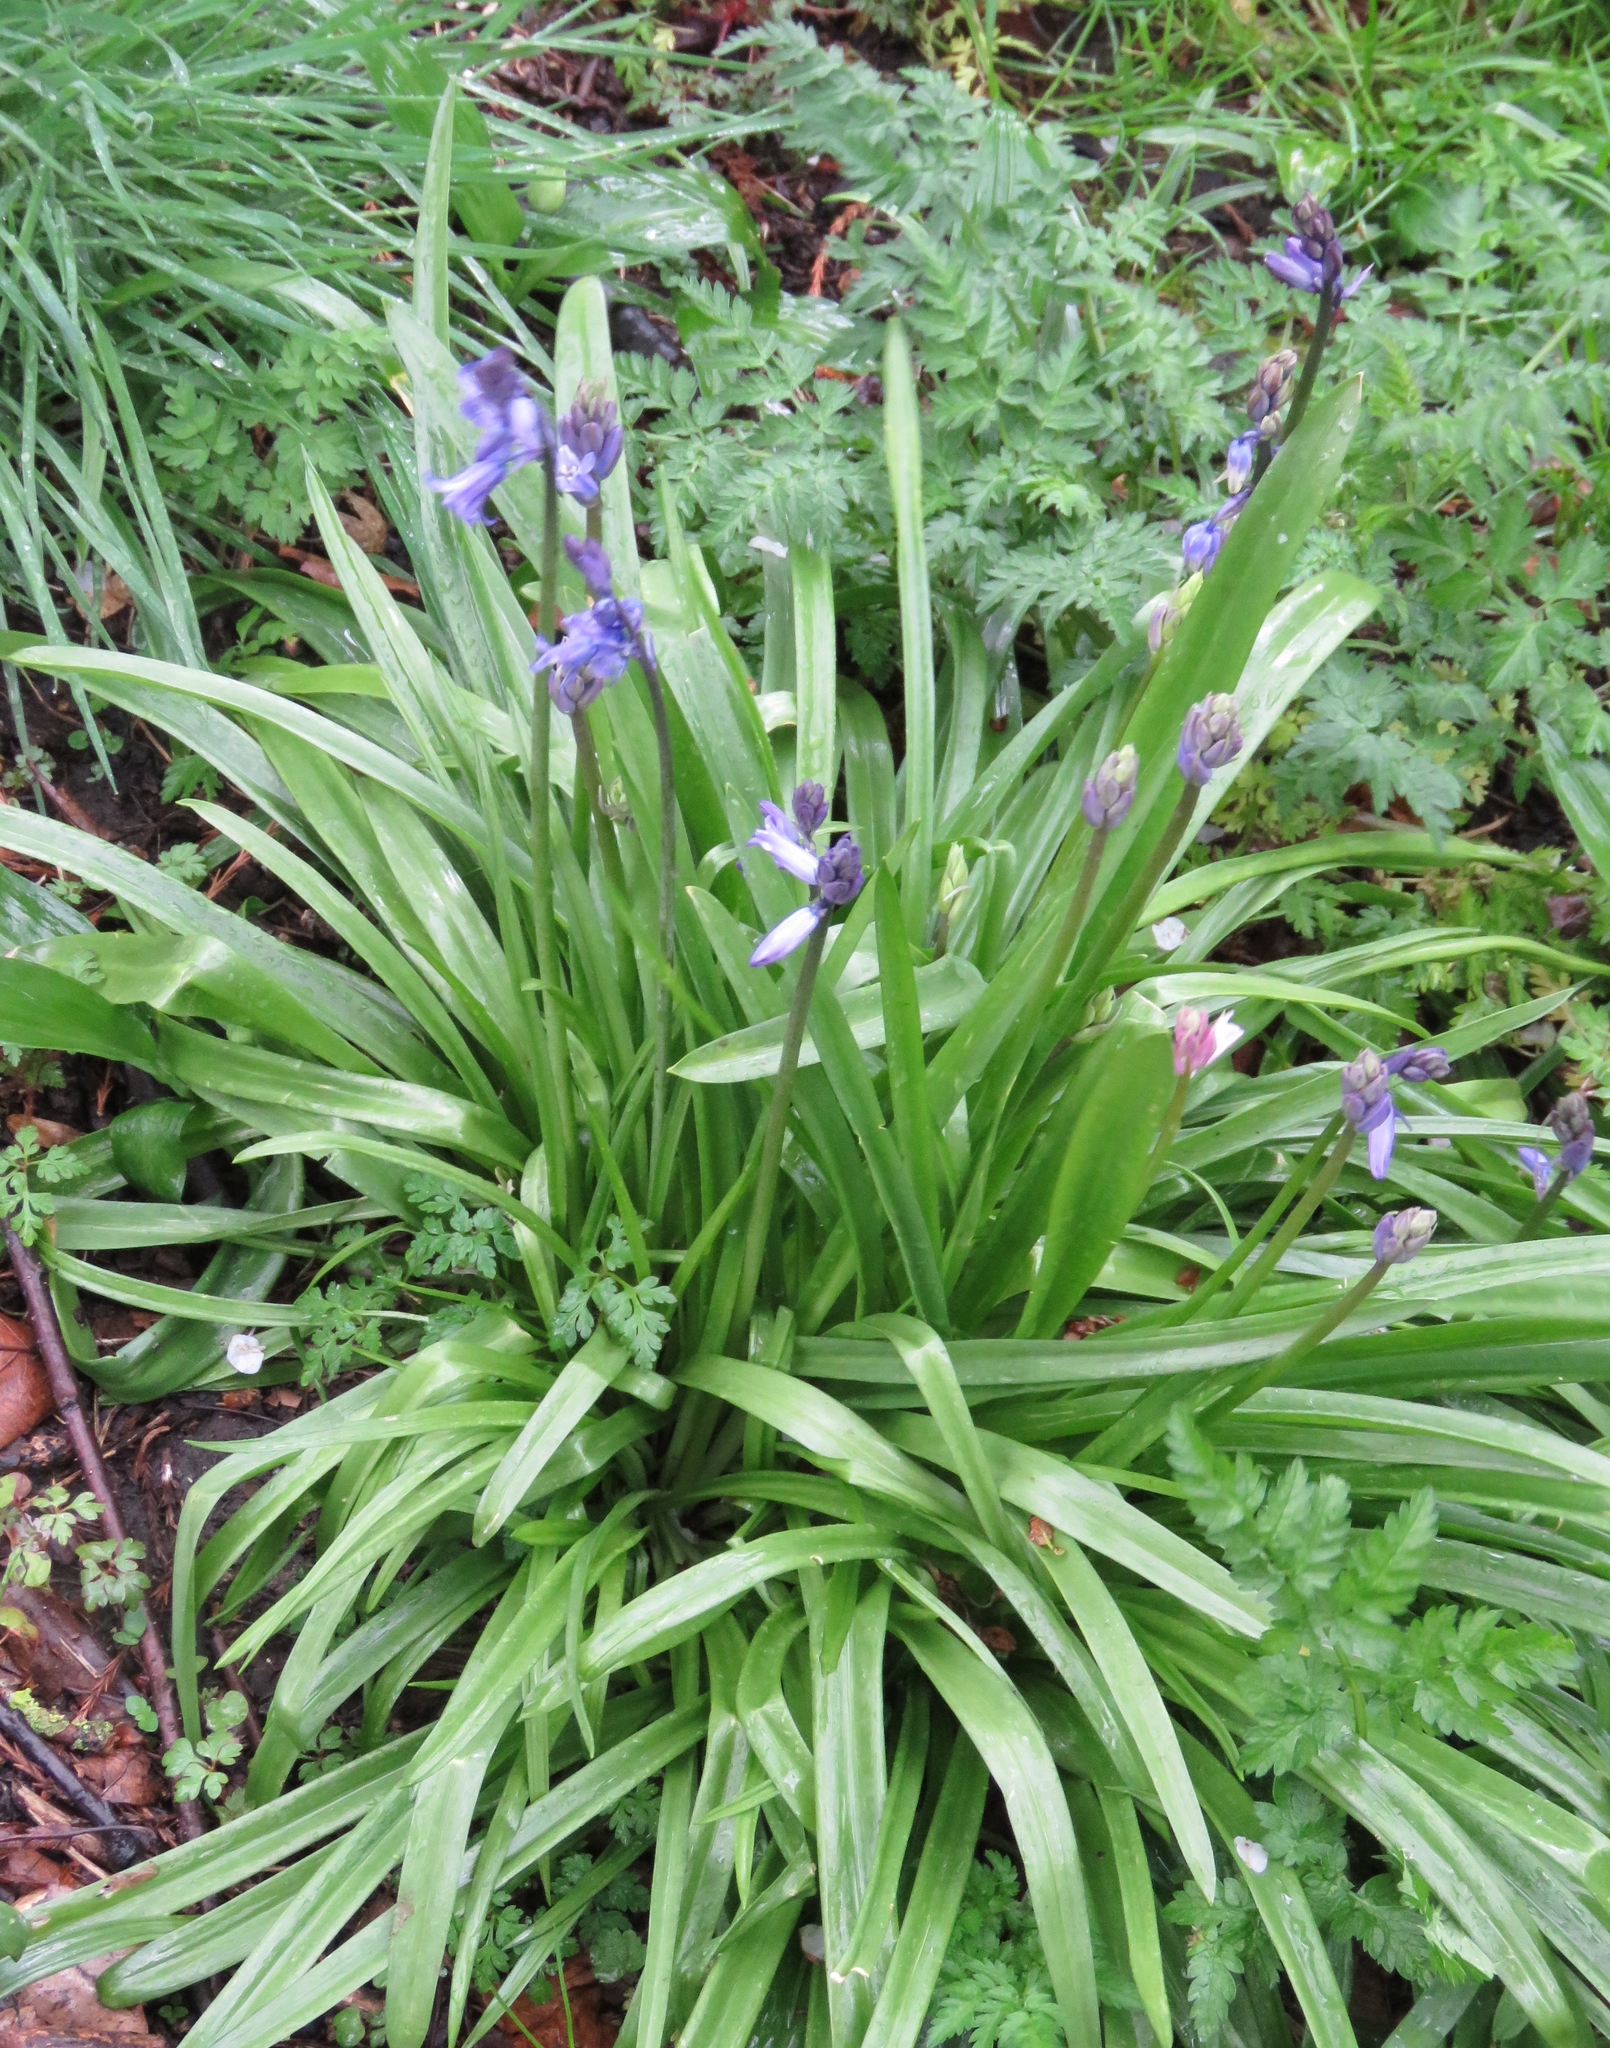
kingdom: Plantae
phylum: Tracheophyta
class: Liliopsida
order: Asparagales
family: Asparagaceae
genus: Hyacinthoides
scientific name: Hyacinthoides massartiana
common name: Hyacinthoides
